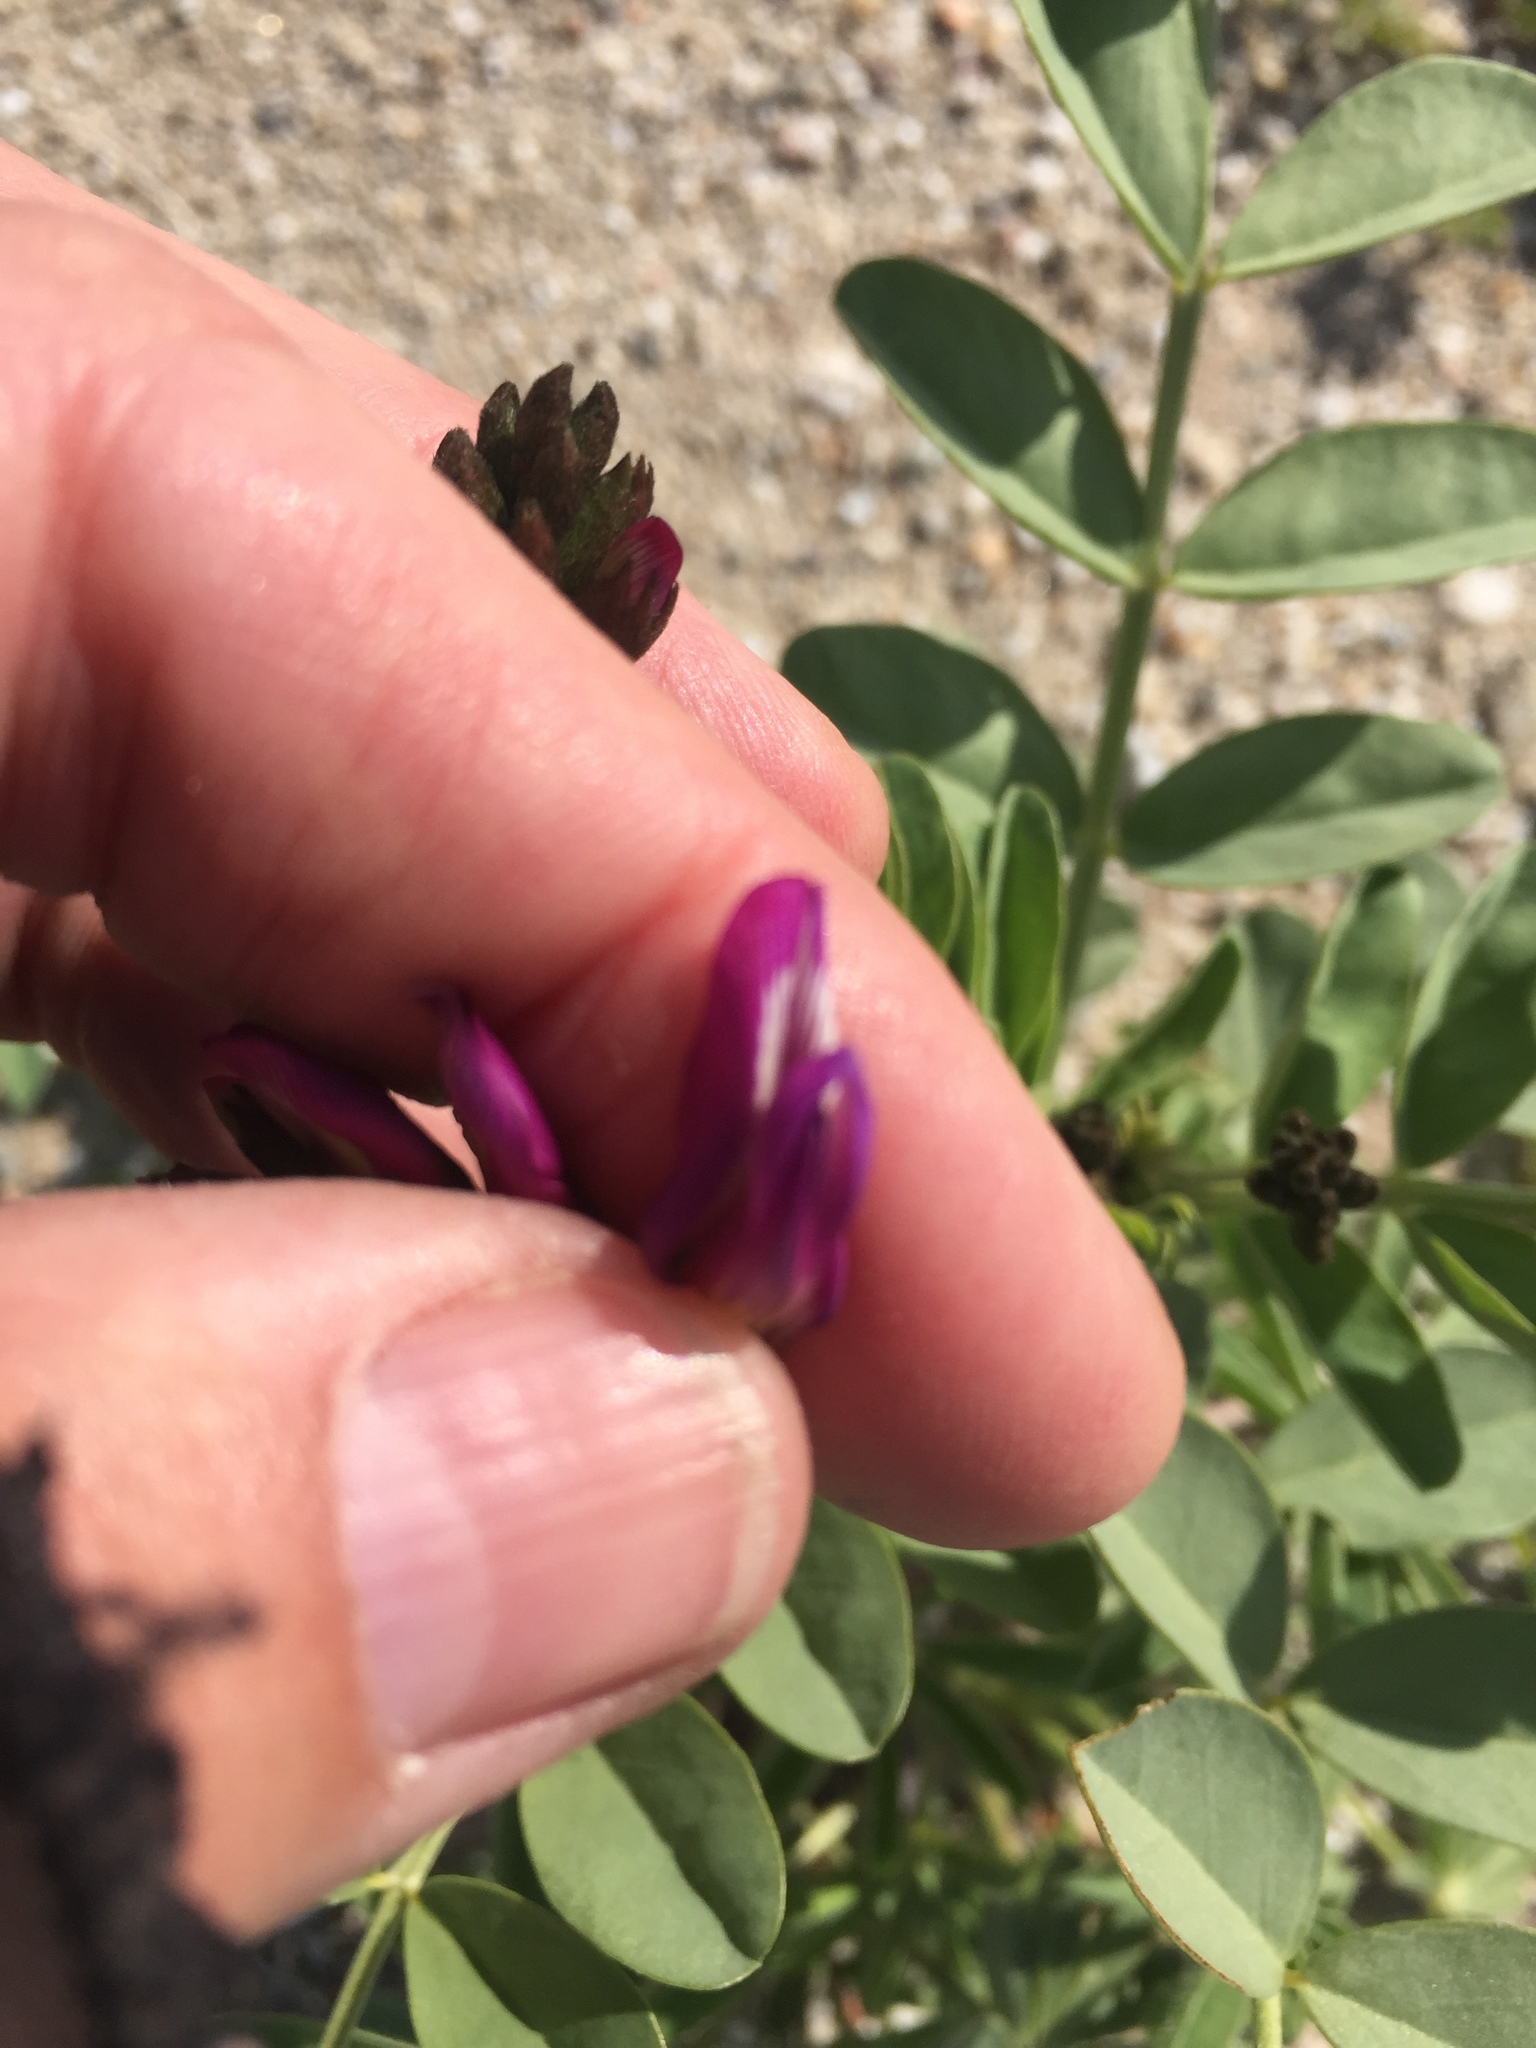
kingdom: Plantae
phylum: Tracheophyta
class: Magnoliopsida
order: Fabales
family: Fabaceae
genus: Astragalus
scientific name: Astragalus crotalariae
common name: Salton milkvetch
